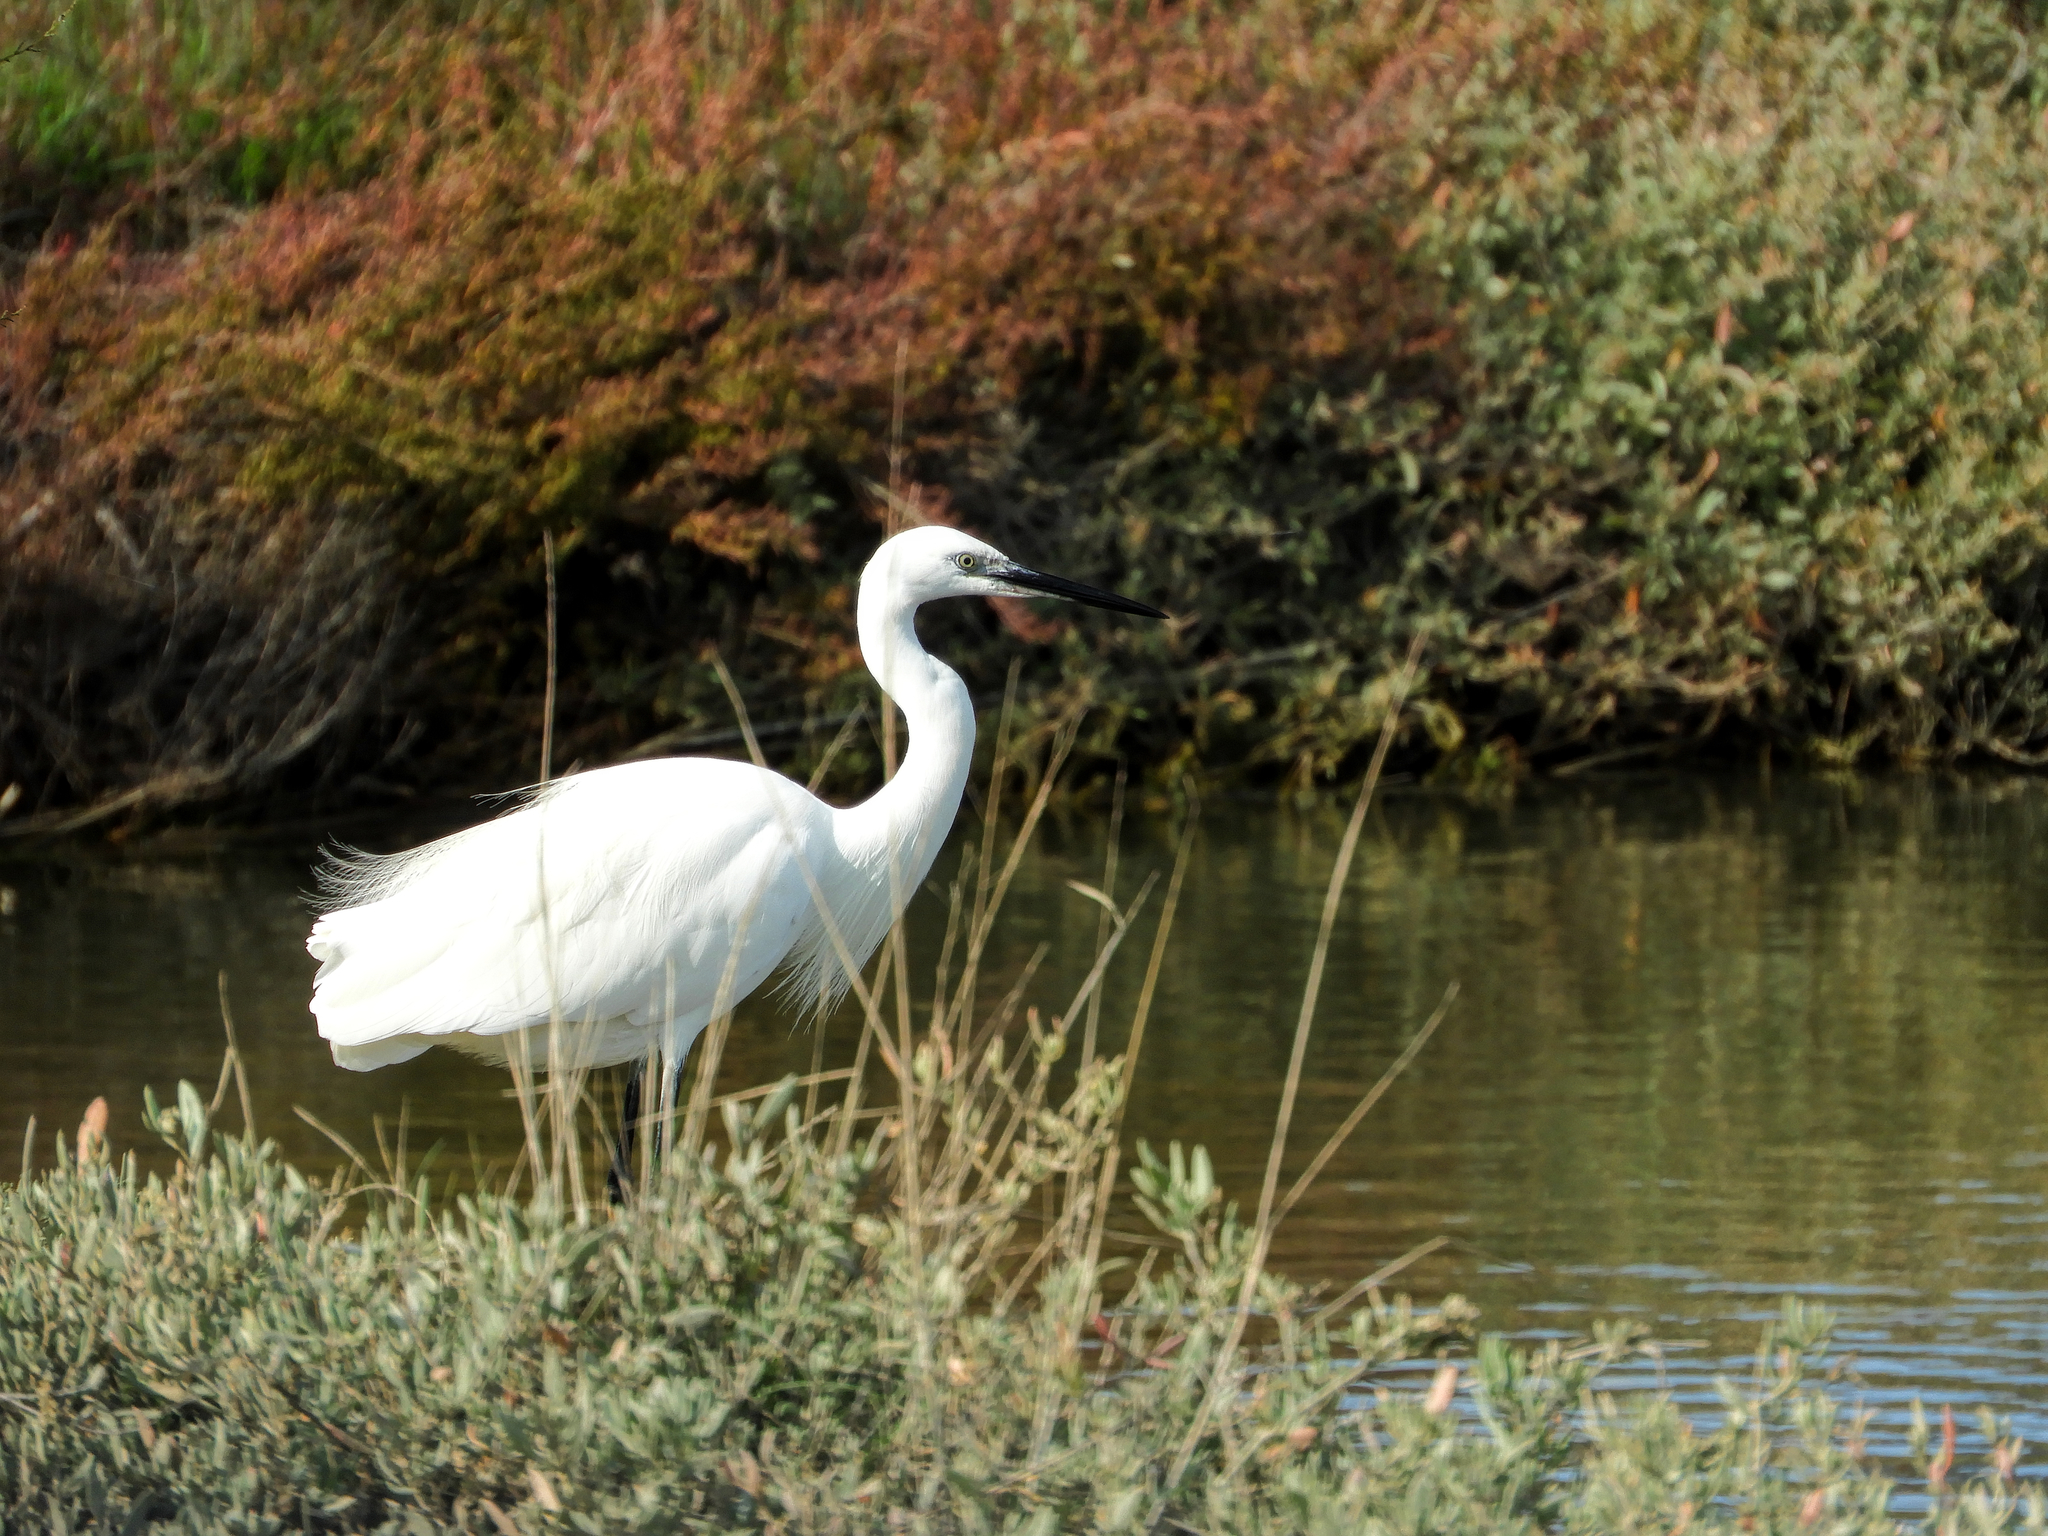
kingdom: Animalia
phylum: Chordata
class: Aves
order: Pelecaniformes
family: Ardeidae
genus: Egretta
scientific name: Egretta garzetta
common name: Little egret
